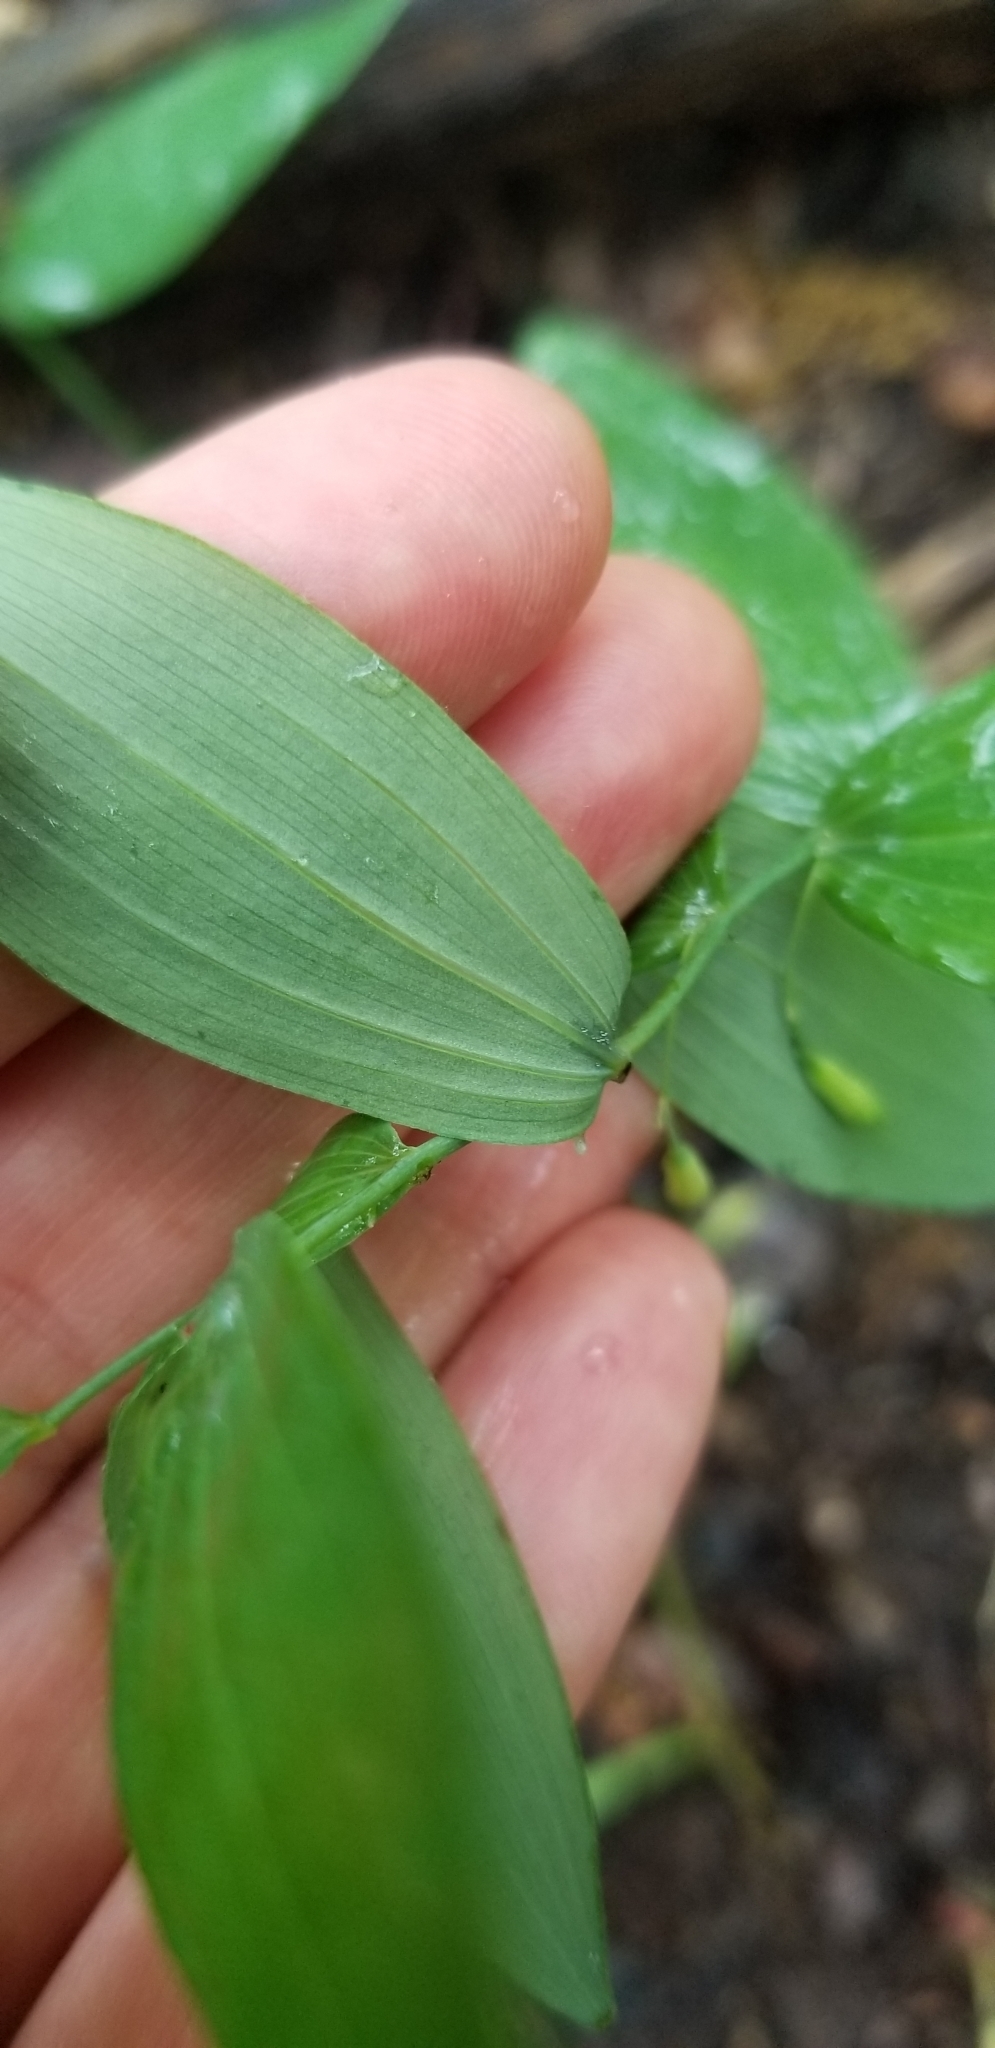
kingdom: Plantae
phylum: Tracheophyta
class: Liliopsida
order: Asparagales
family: Asparagaceae
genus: Polygonatum
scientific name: Polygonatum biflorum
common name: American solomon's-seal
